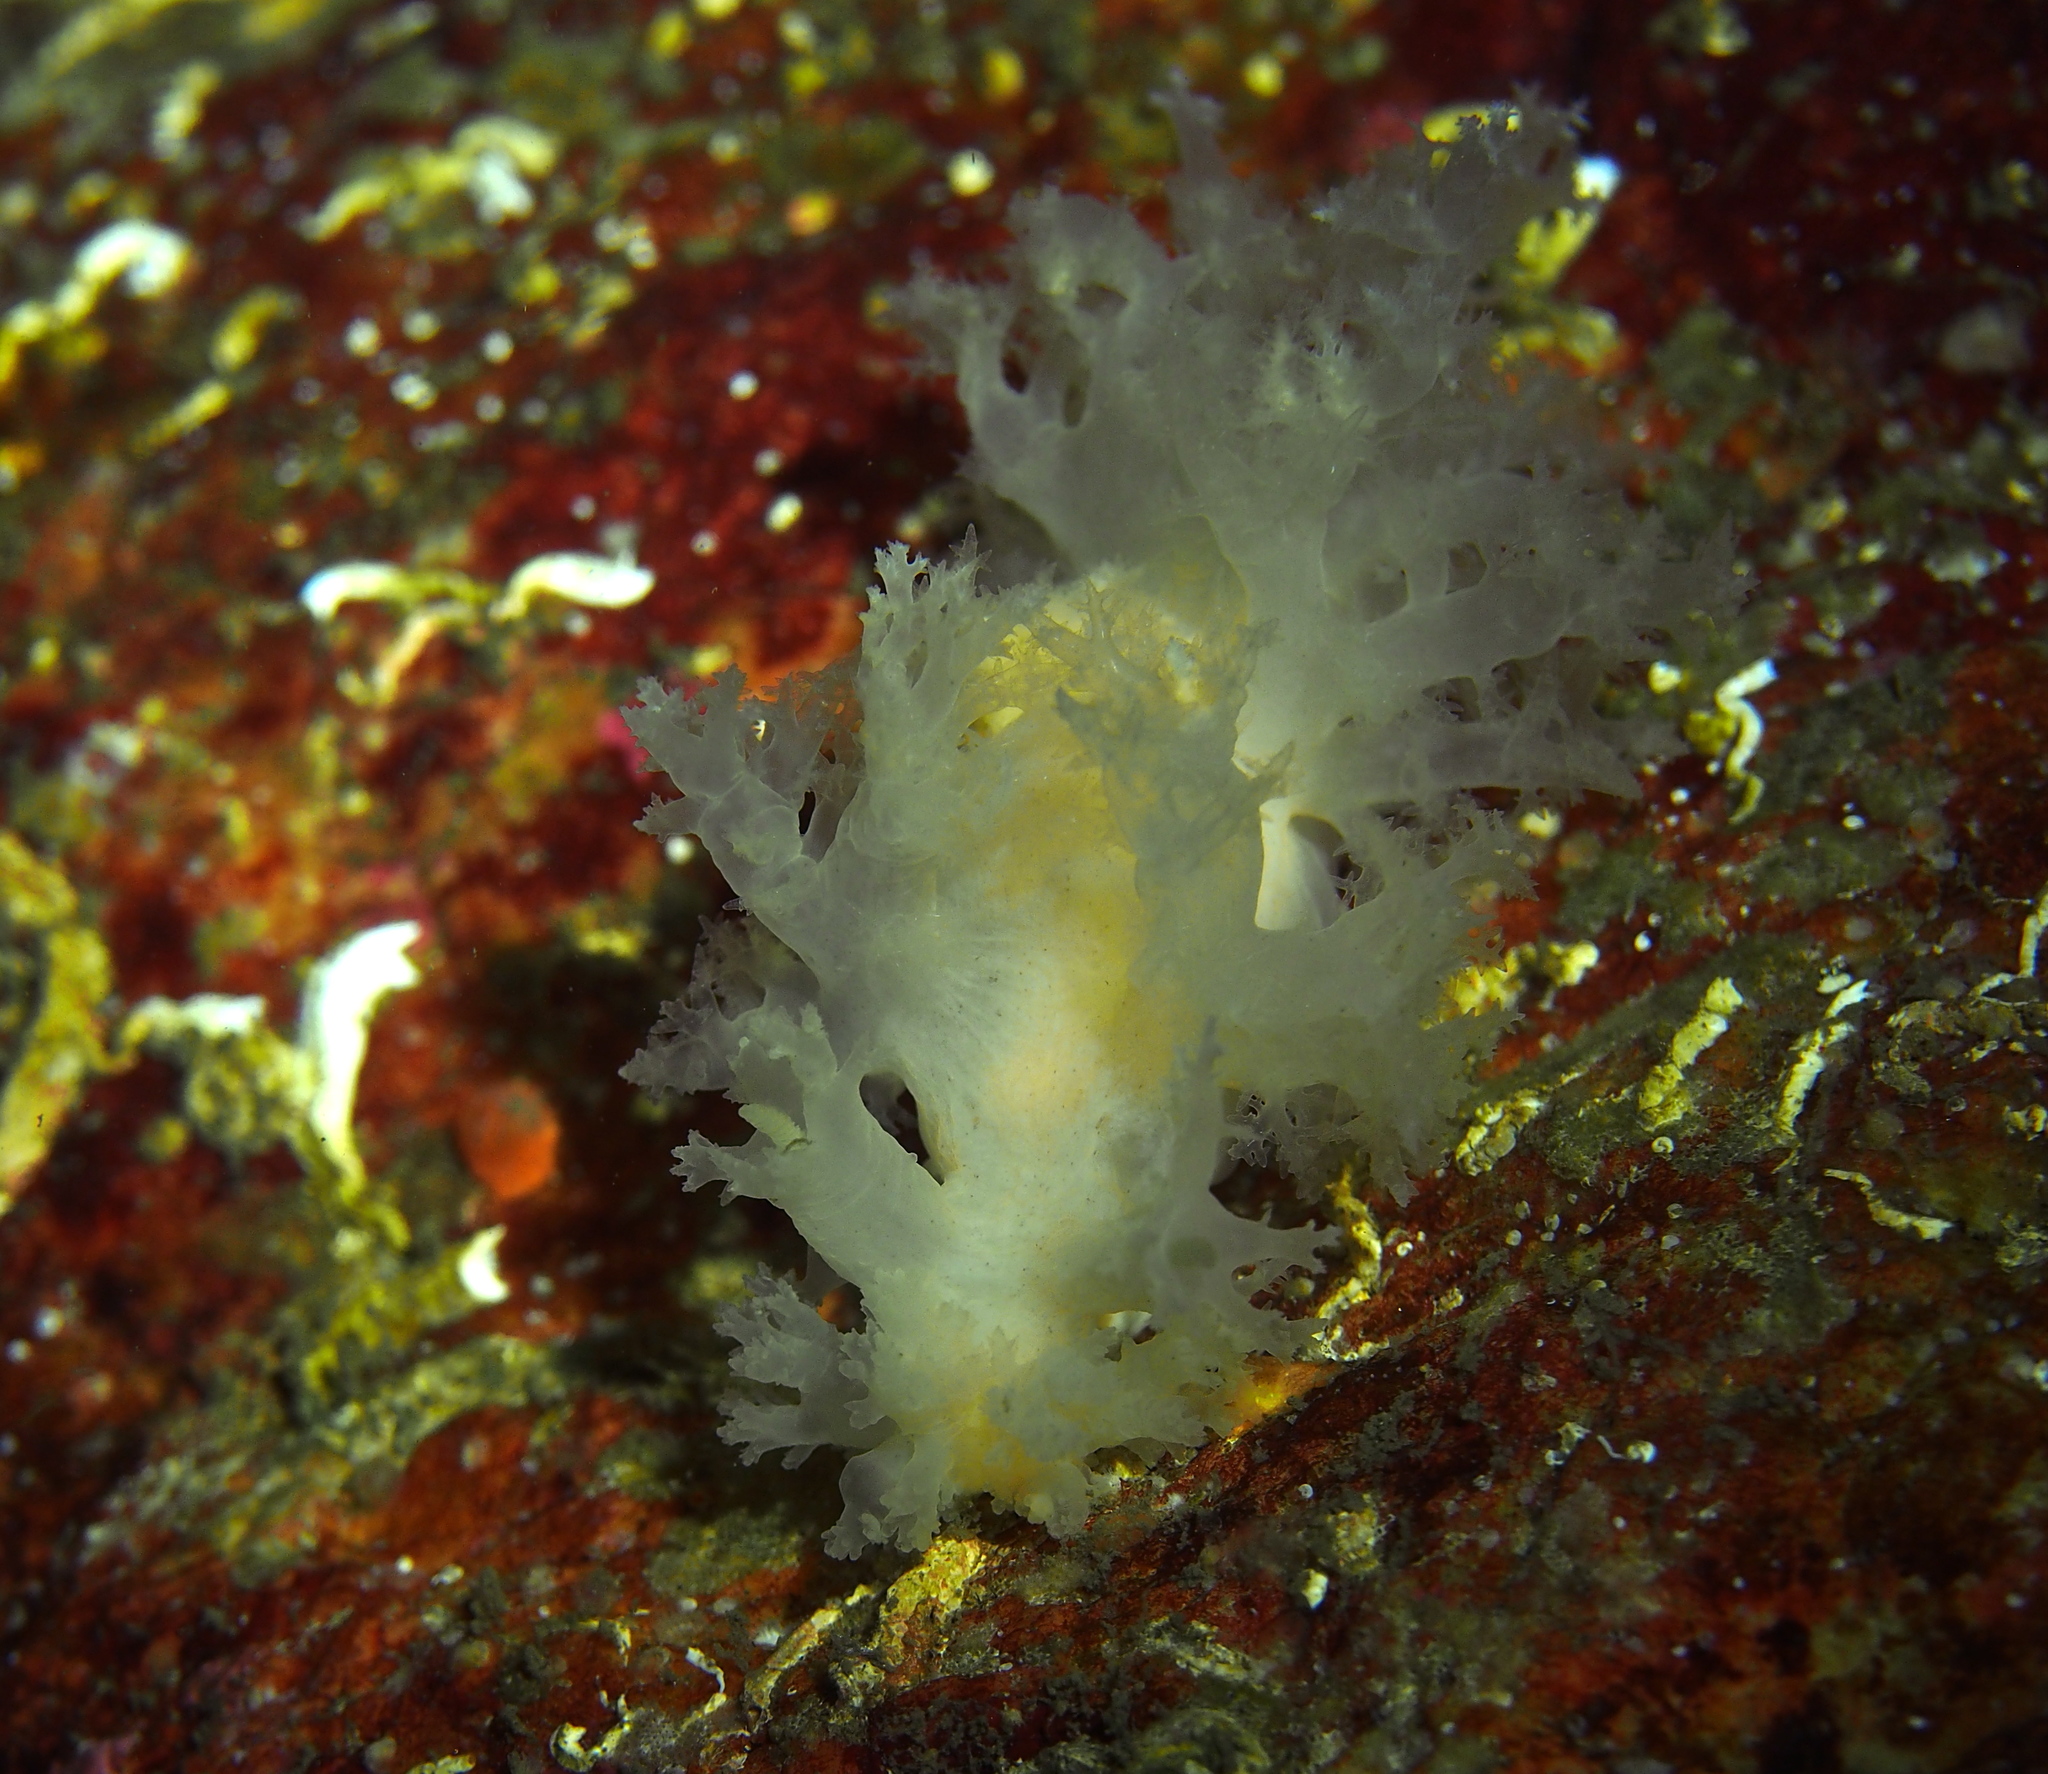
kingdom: Animalia
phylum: Mollusca
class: Gastropoda
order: Nudibranchia
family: Dendronotidae
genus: Dendronotus
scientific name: Dendronotus lacteus
